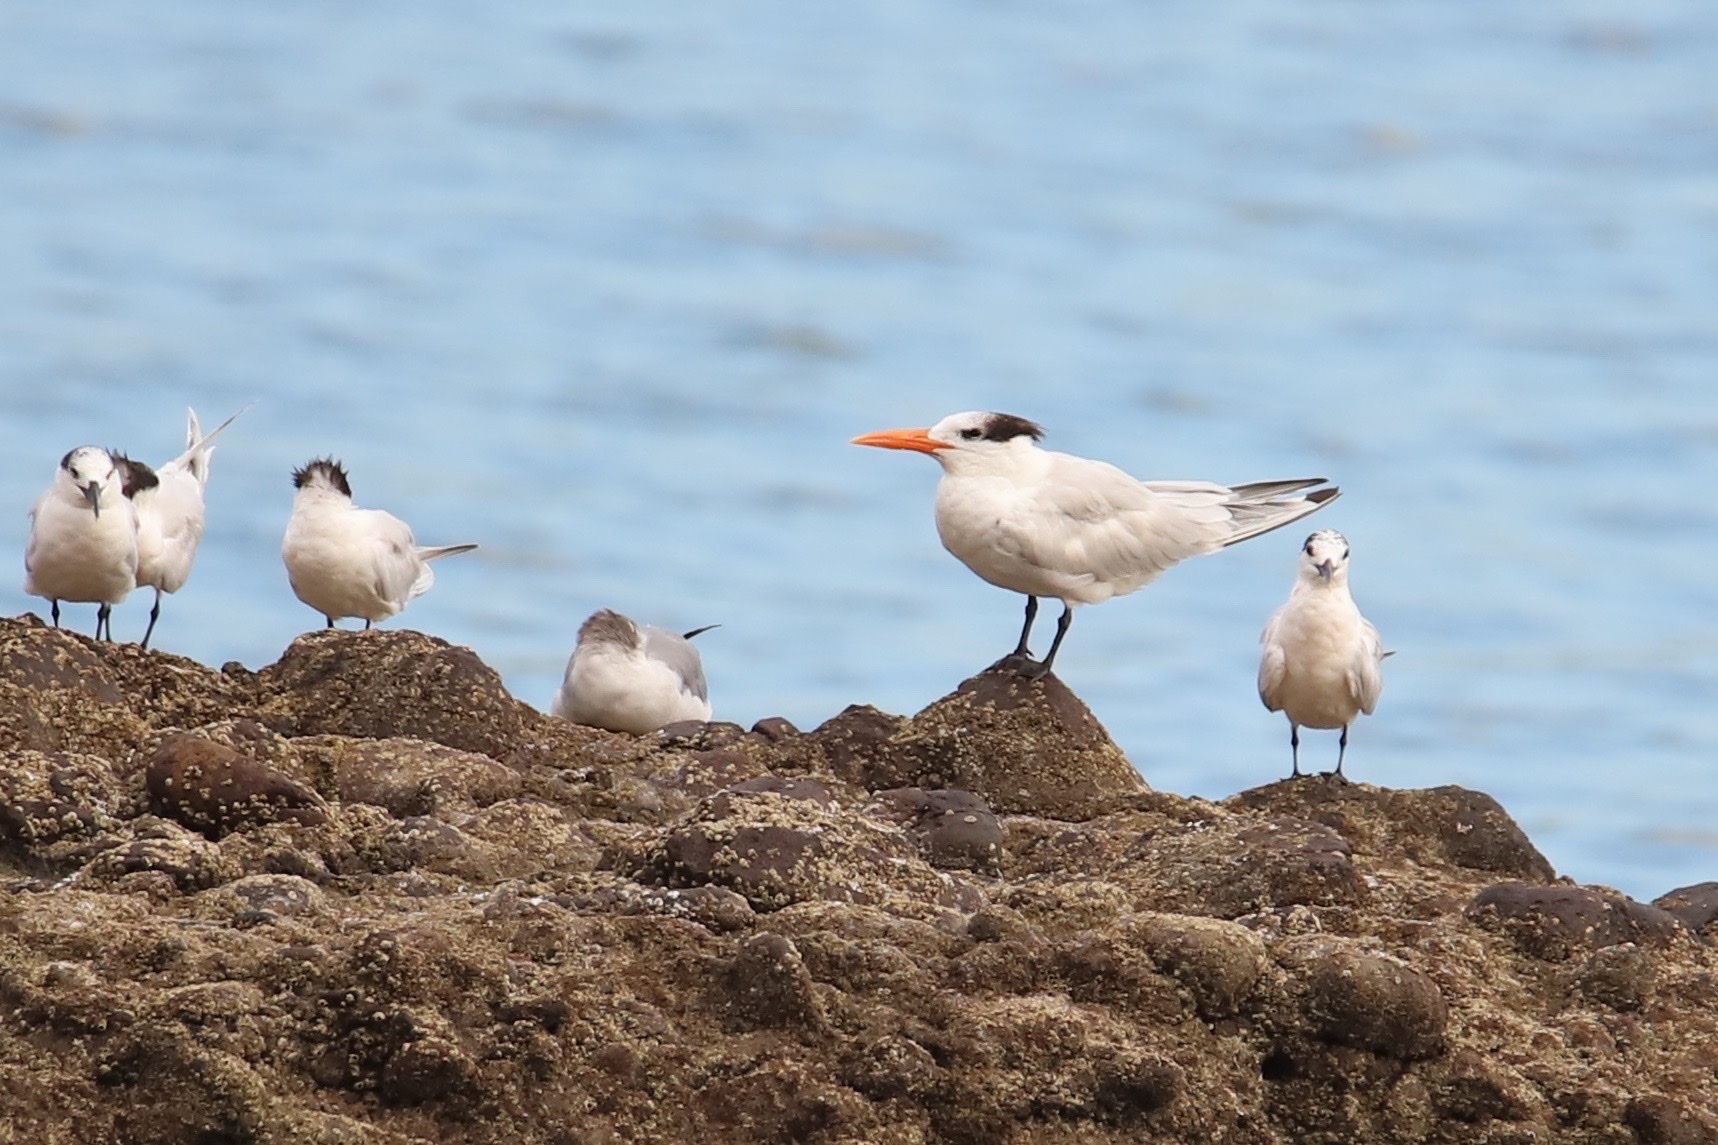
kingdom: Animalia
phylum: Chordata
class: Aves
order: Charadriiformes
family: Laridae
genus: Thalasseus
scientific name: Thalasseus maximus
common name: Royal tern
